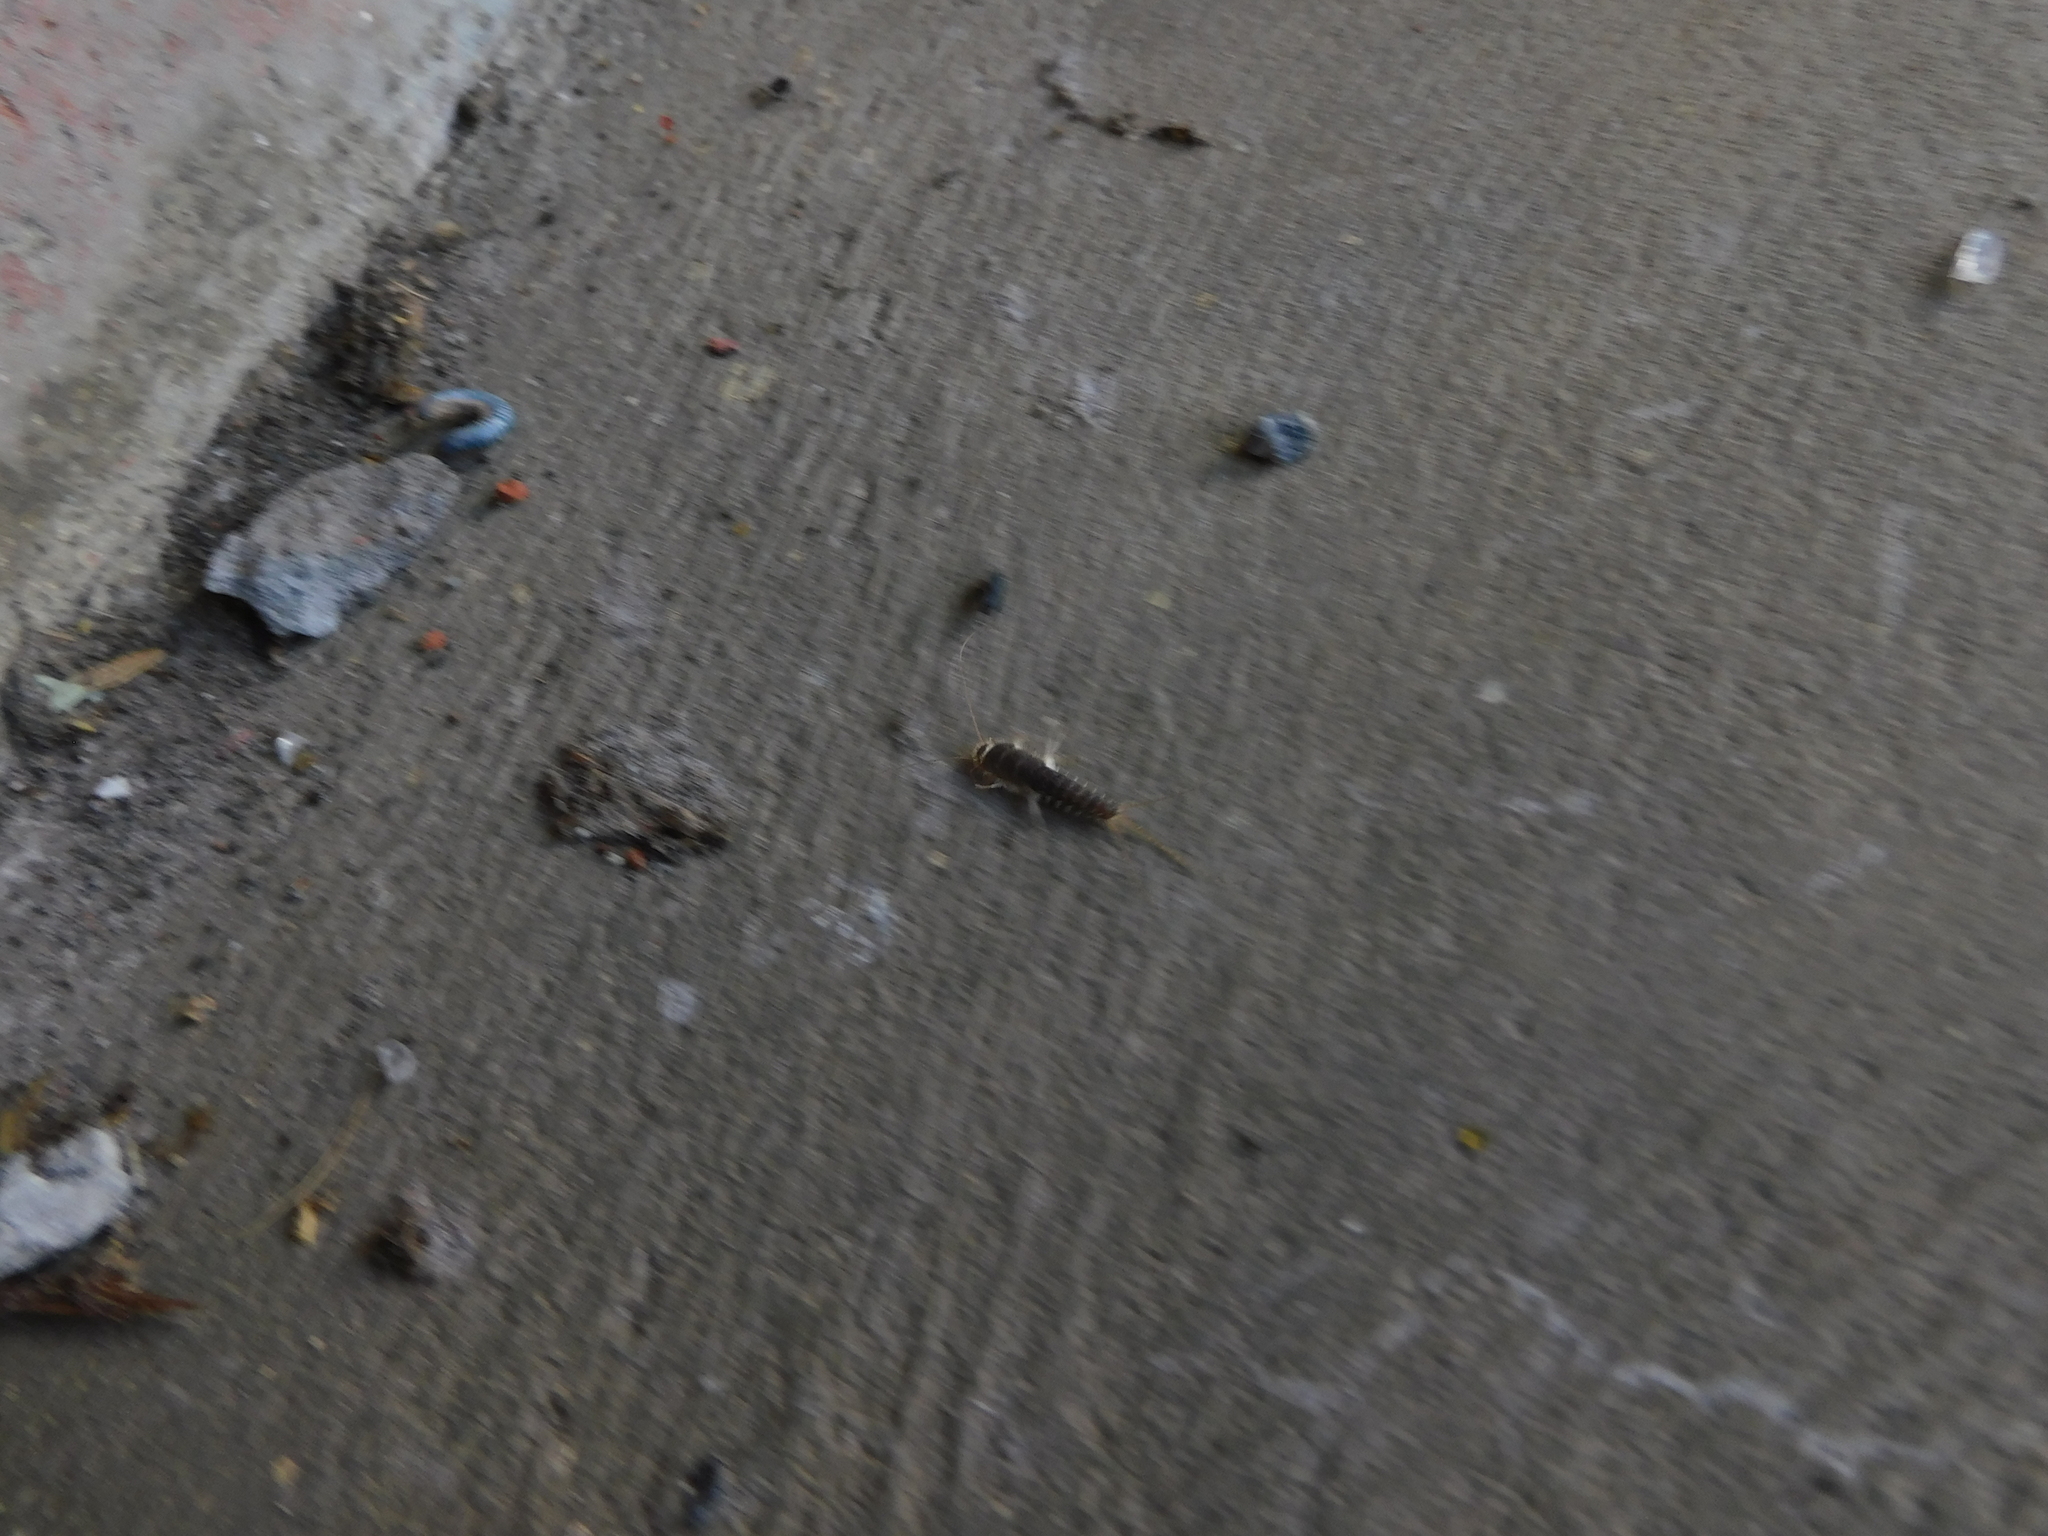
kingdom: Animalia
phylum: Arthropoda
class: Insecta
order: Zygentoma
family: Lepismatidae
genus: Ctenolepisma
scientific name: Ctenolepisma longicaudatum
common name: Silverfish
